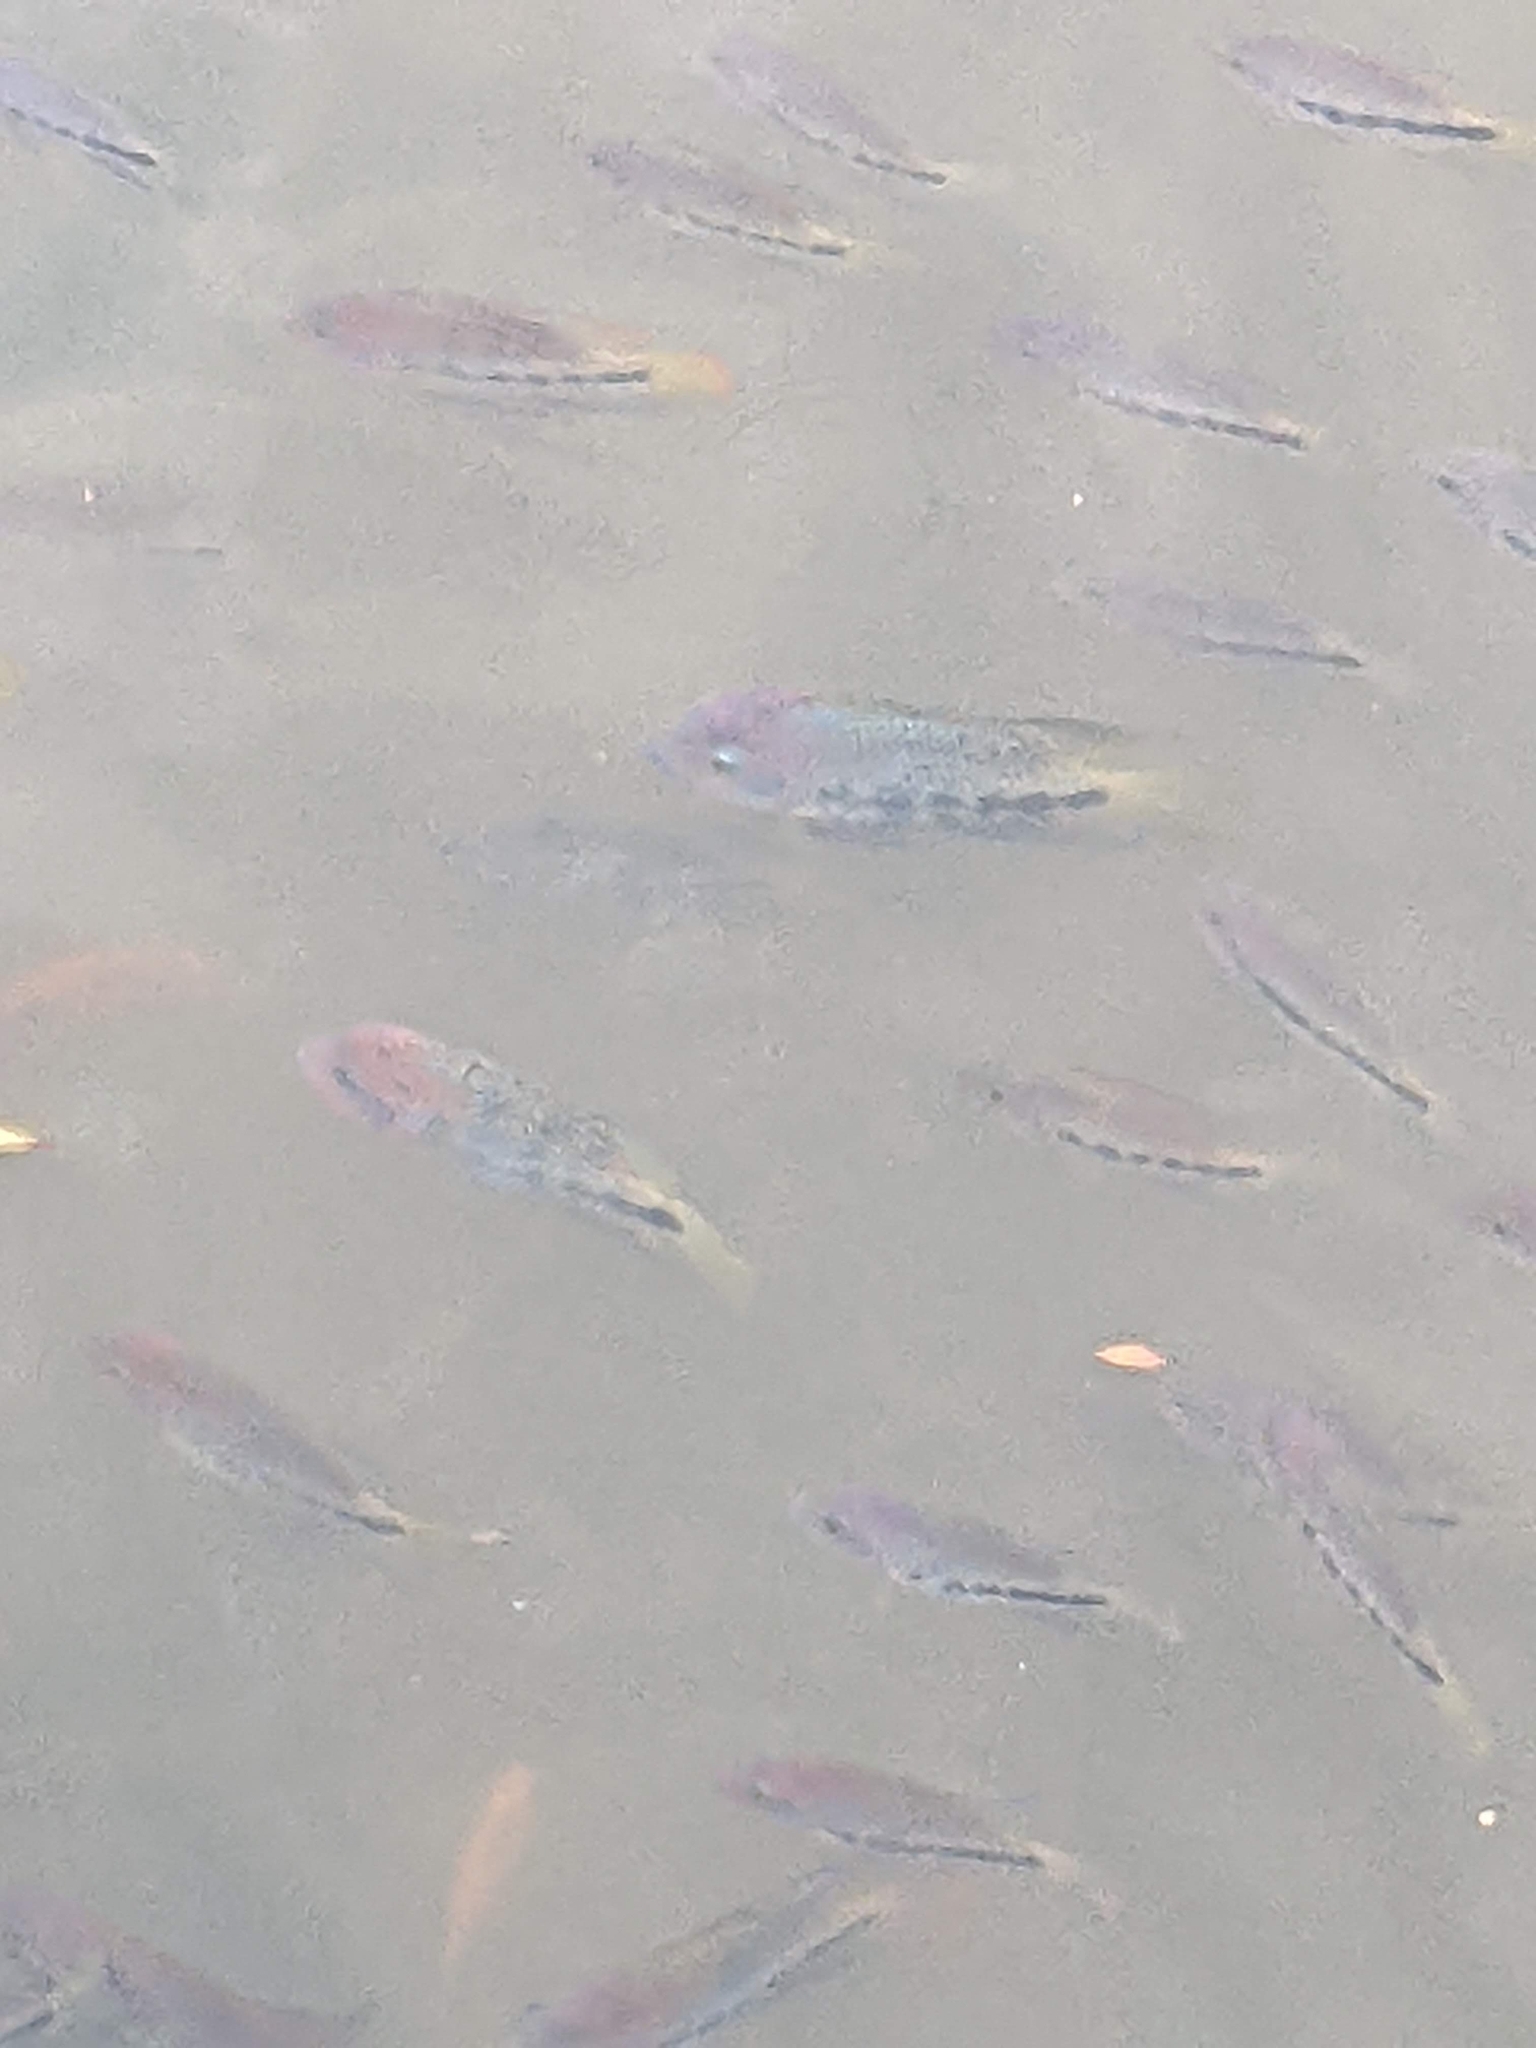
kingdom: Animalia
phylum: Chordata
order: Perciformes
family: Cichlidae
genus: Vieja
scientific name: Vieja melanura
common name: Redhead cichlid
